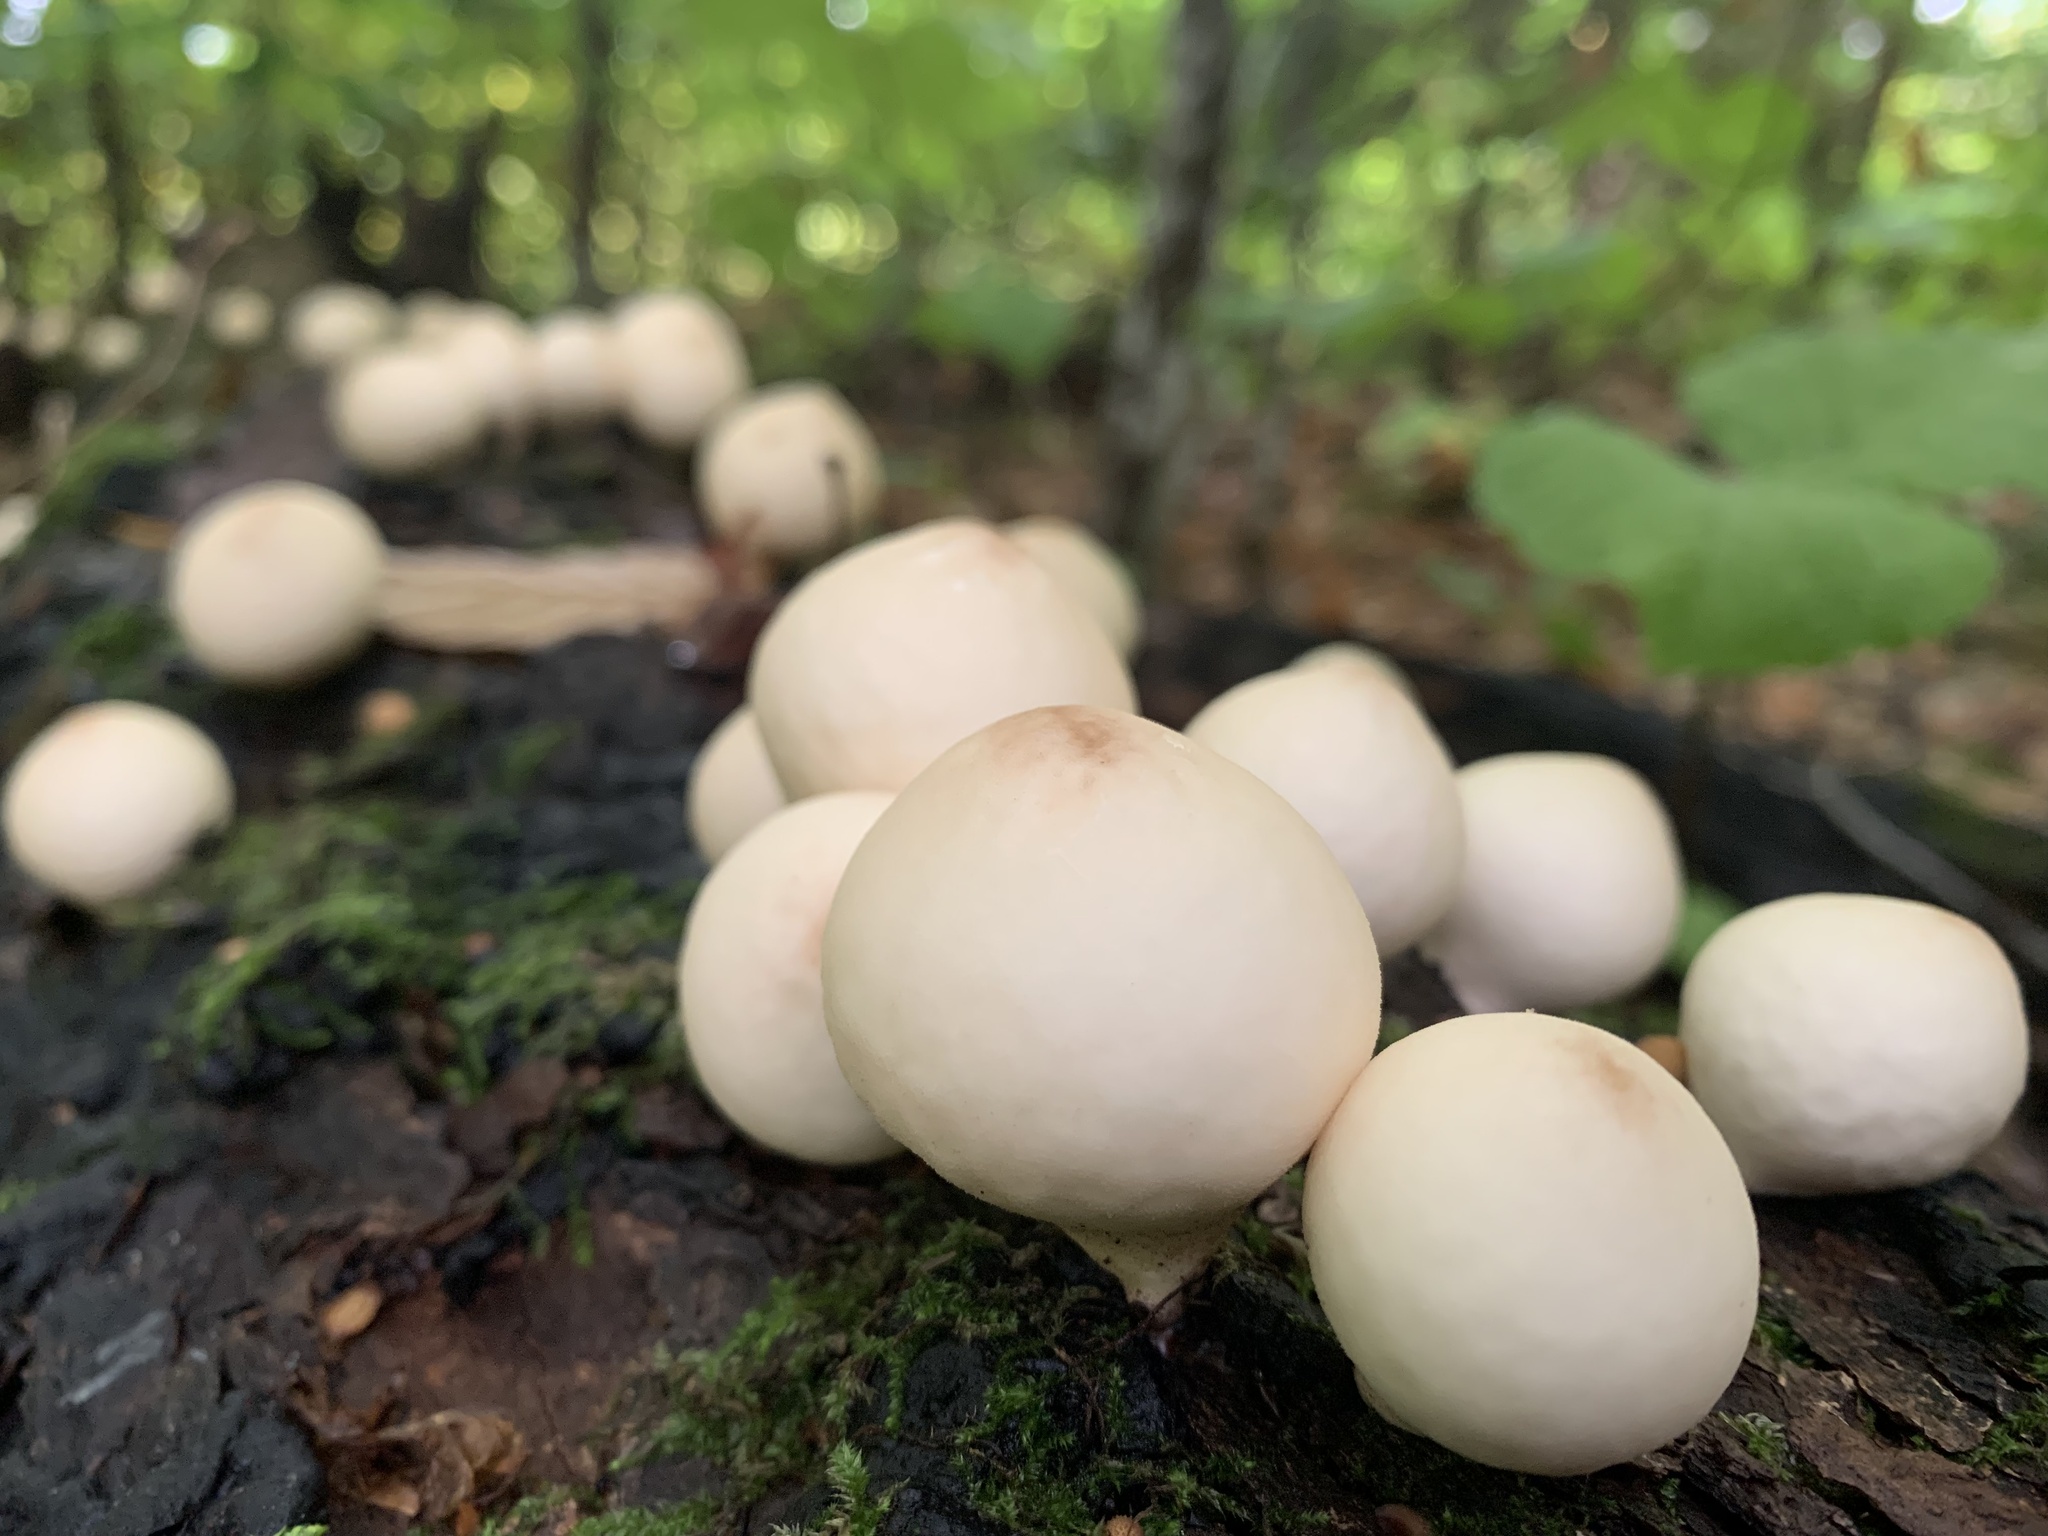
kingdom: Fungi
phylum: Basidiomycota
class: Agaricomycetes
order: Agaricales
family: Lycoperdaceae
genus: Apioperdon
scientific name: Apioperdon pyriforme
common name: Pear-shaped puffball
